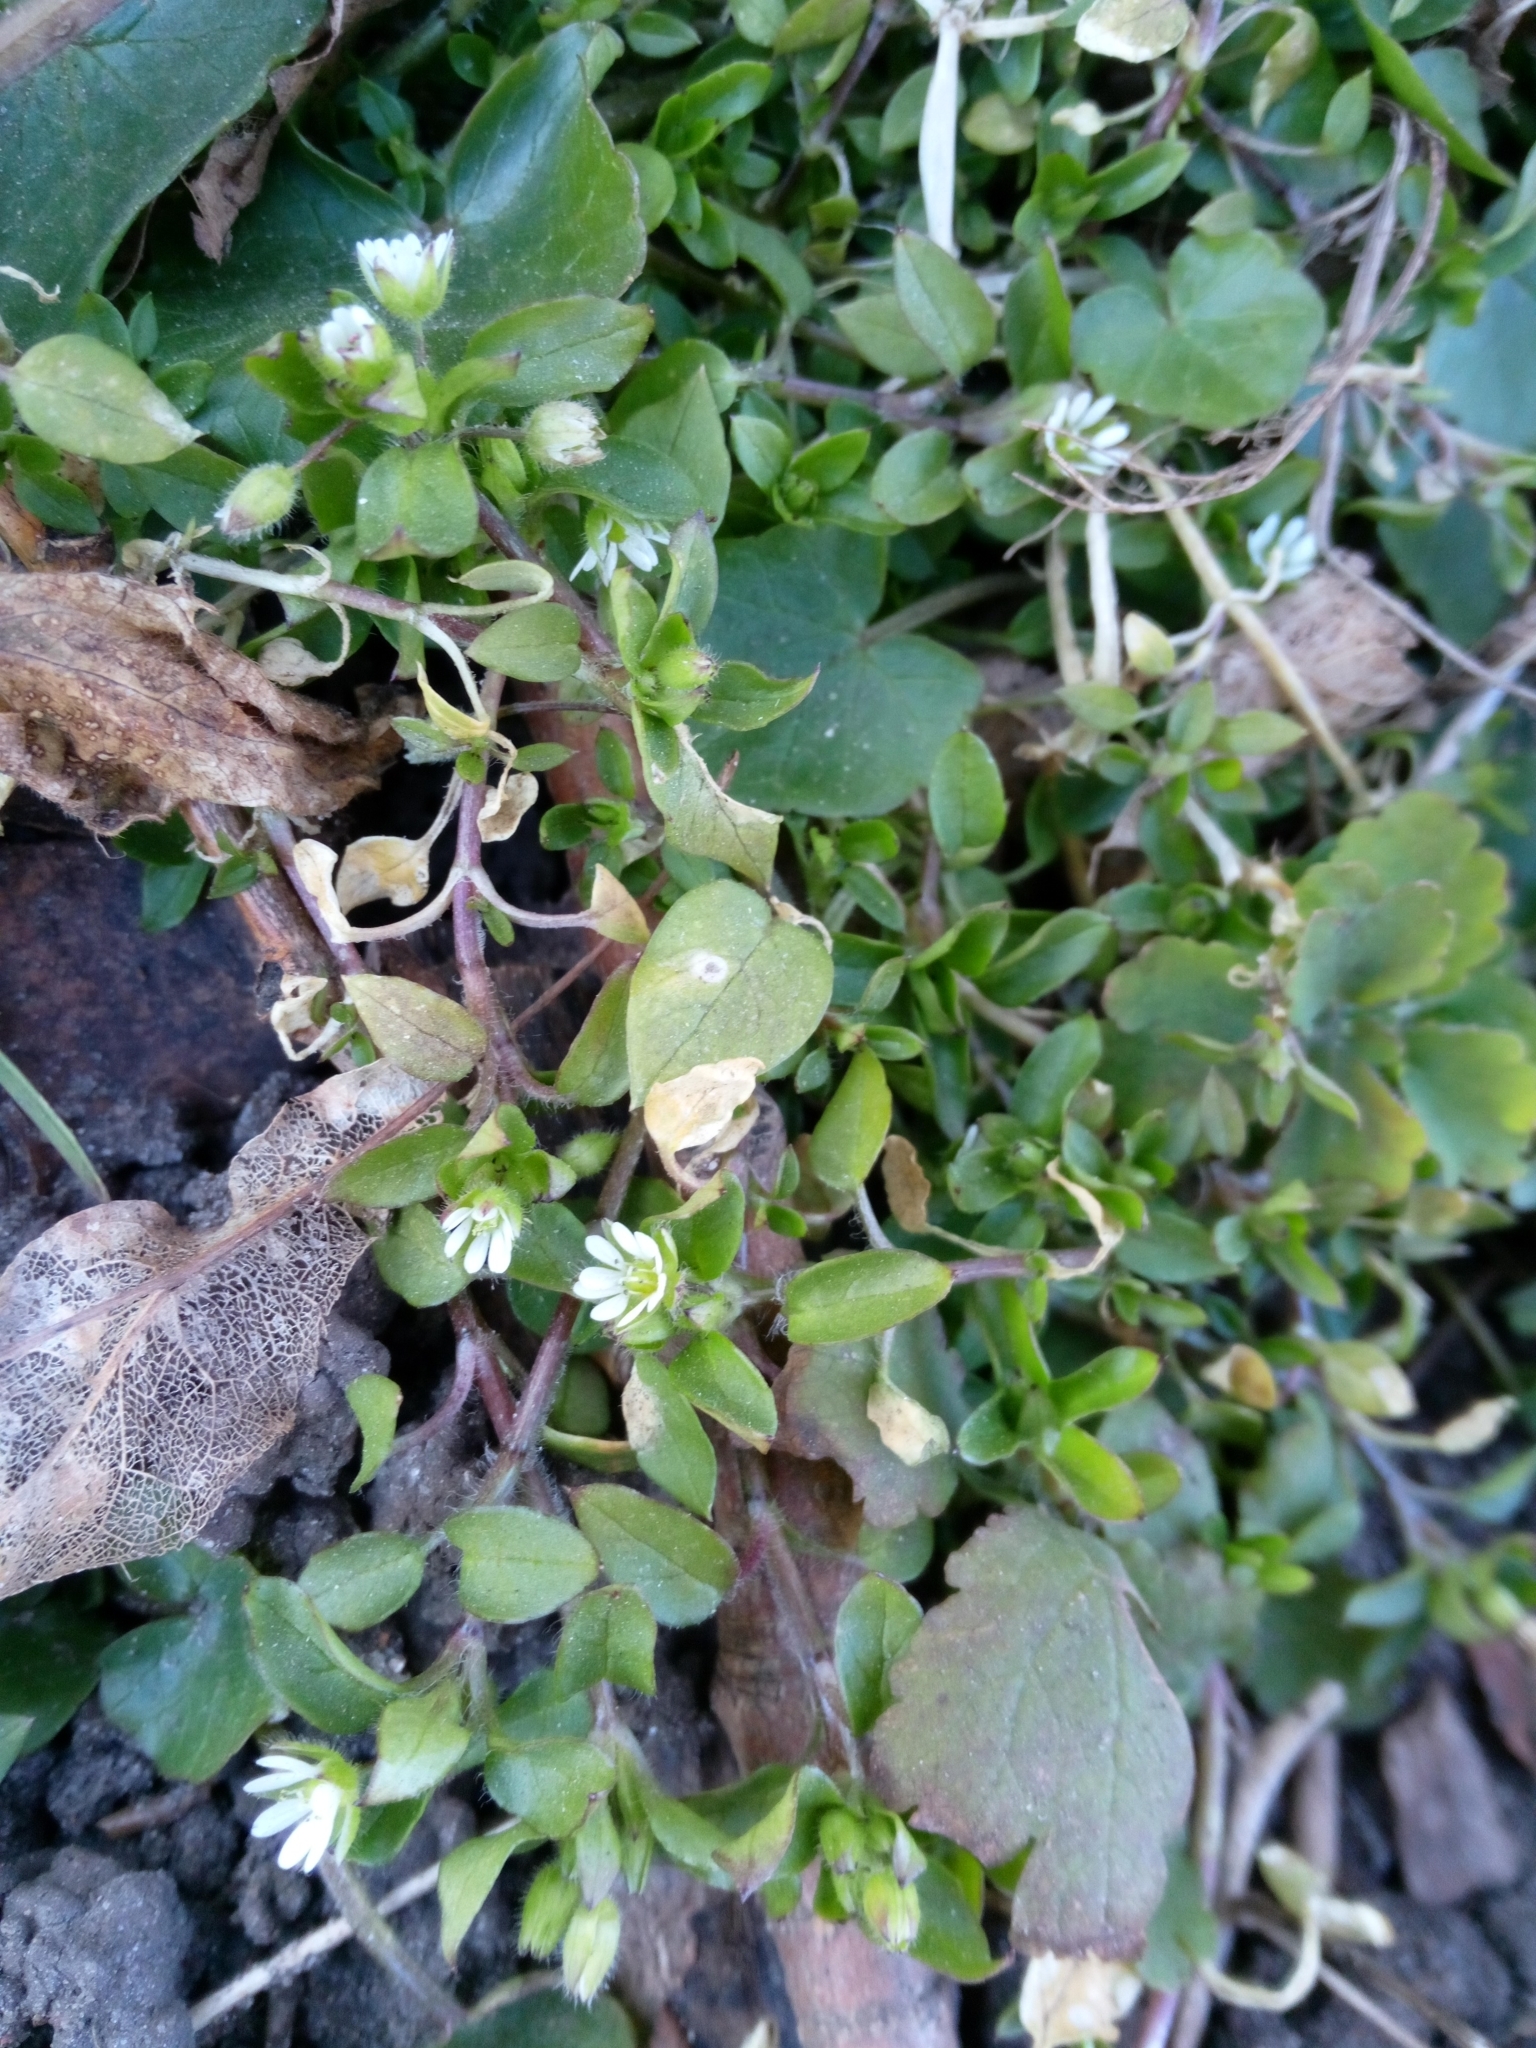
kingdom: Plantae
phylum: Tracheophyta
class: Magnoliopsida
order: Caryophyllales
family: Caryophyllaceae
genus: Stellaria
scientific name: Stellaria
